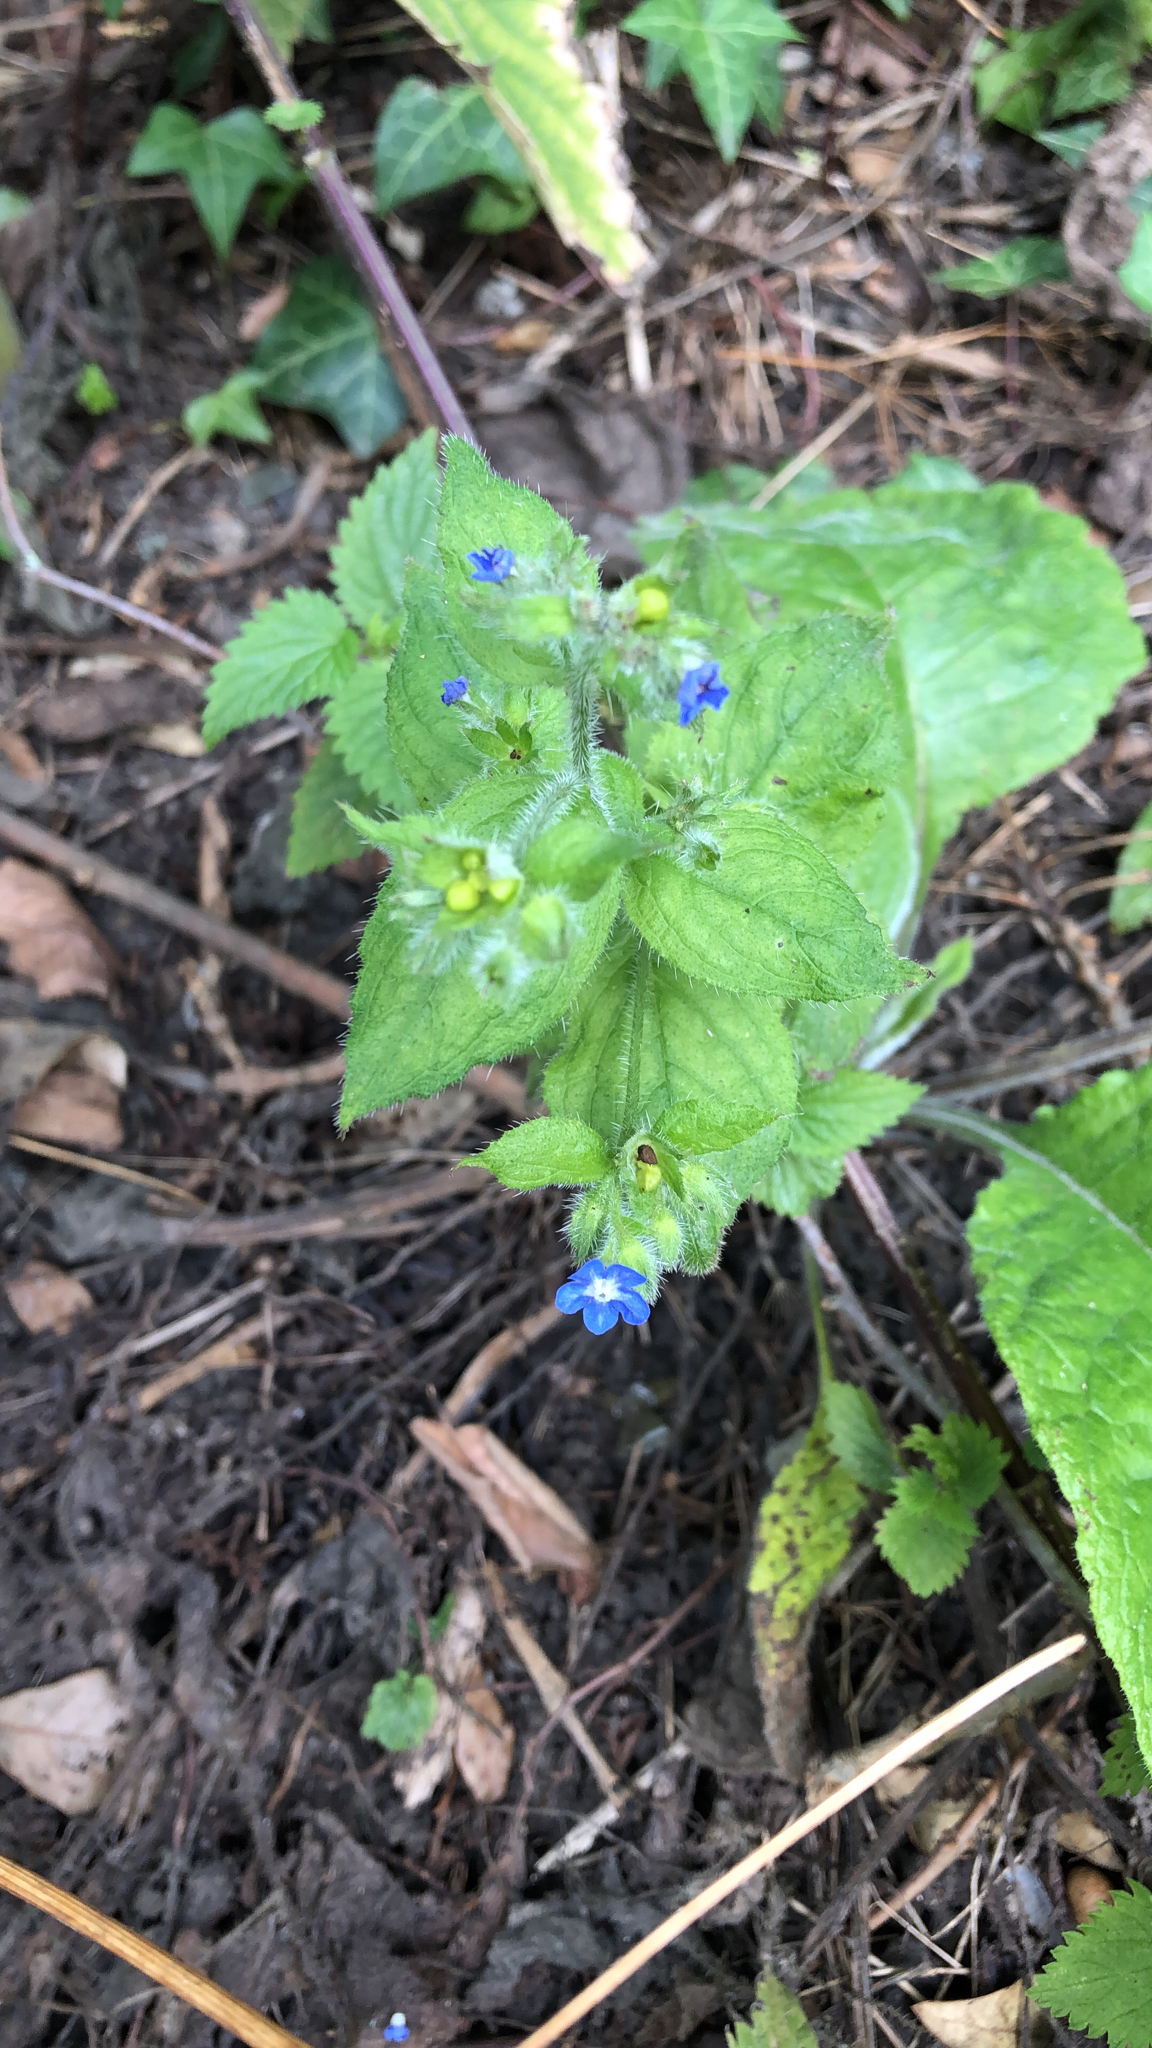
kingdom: Plantae
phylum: Tracheophyta
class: Magnoliopsida
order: Boraginales
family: Boraginaceae
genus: Pentaglottis
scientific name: Pentaglottis sempervirens
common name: Green alkanet
